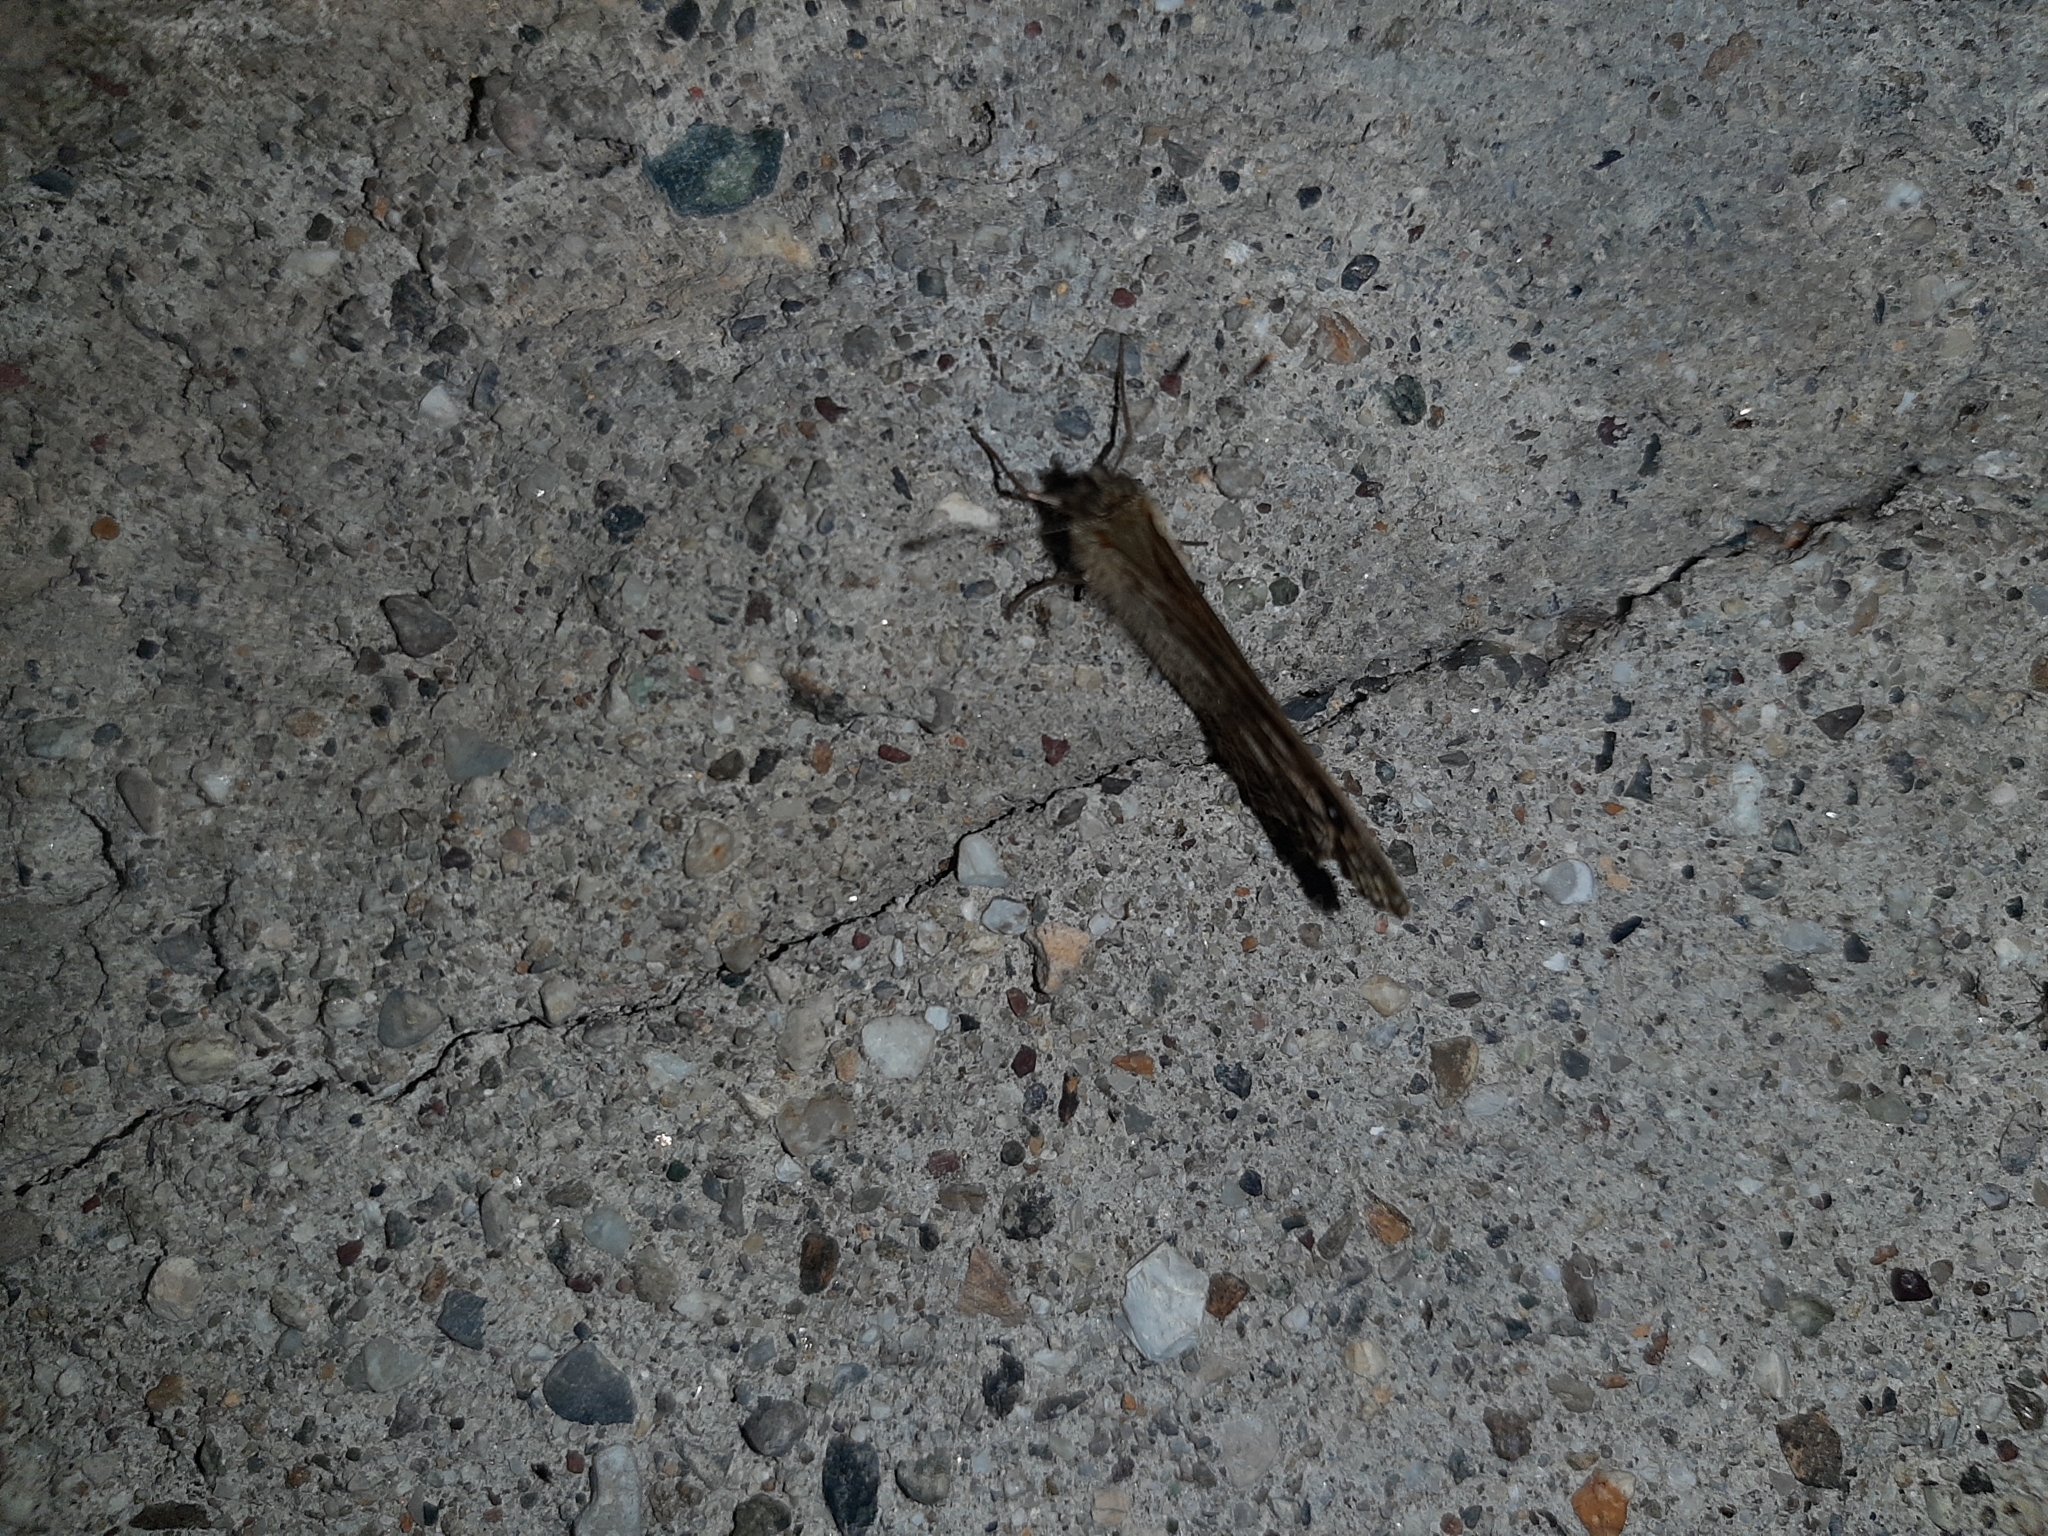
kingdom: Animalia
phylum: Arthropoda
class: Insecta
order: Lepidoptera
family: Nymphalidae
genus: Pararge
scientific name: Pararge Lasiommata megera
